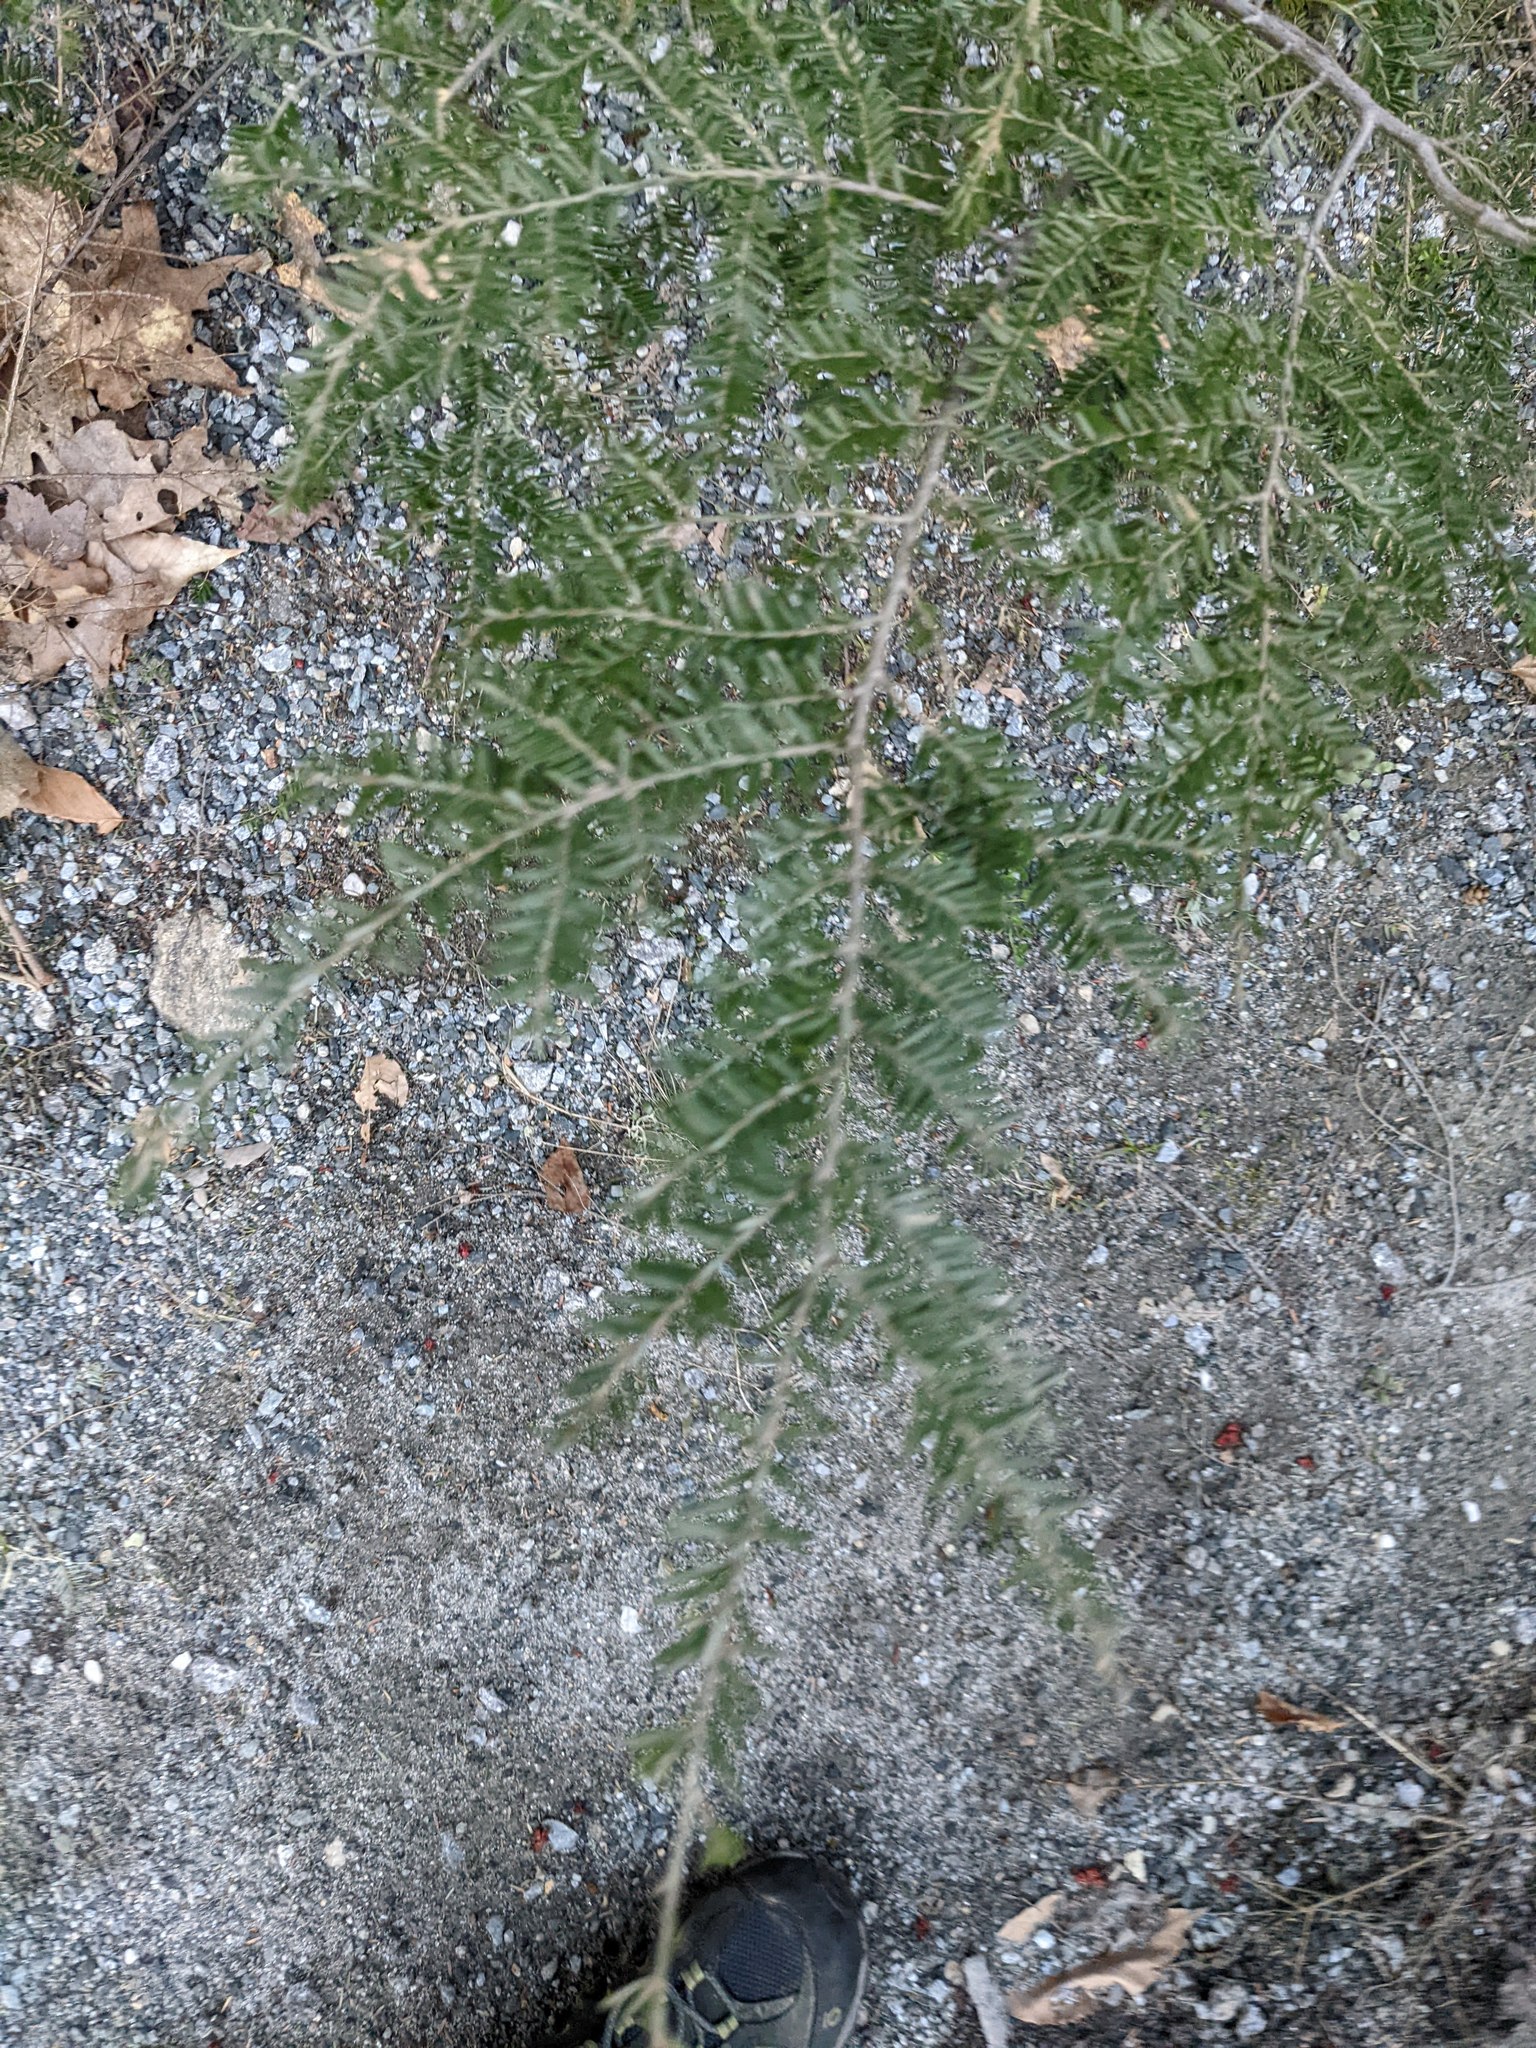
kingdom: Plantae
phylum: Tracheophyta
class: Pinopsida
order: Pinales
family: Pinaceae
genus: Tsuga
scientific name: Tsuga canadensis
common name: Eastern hemlock
